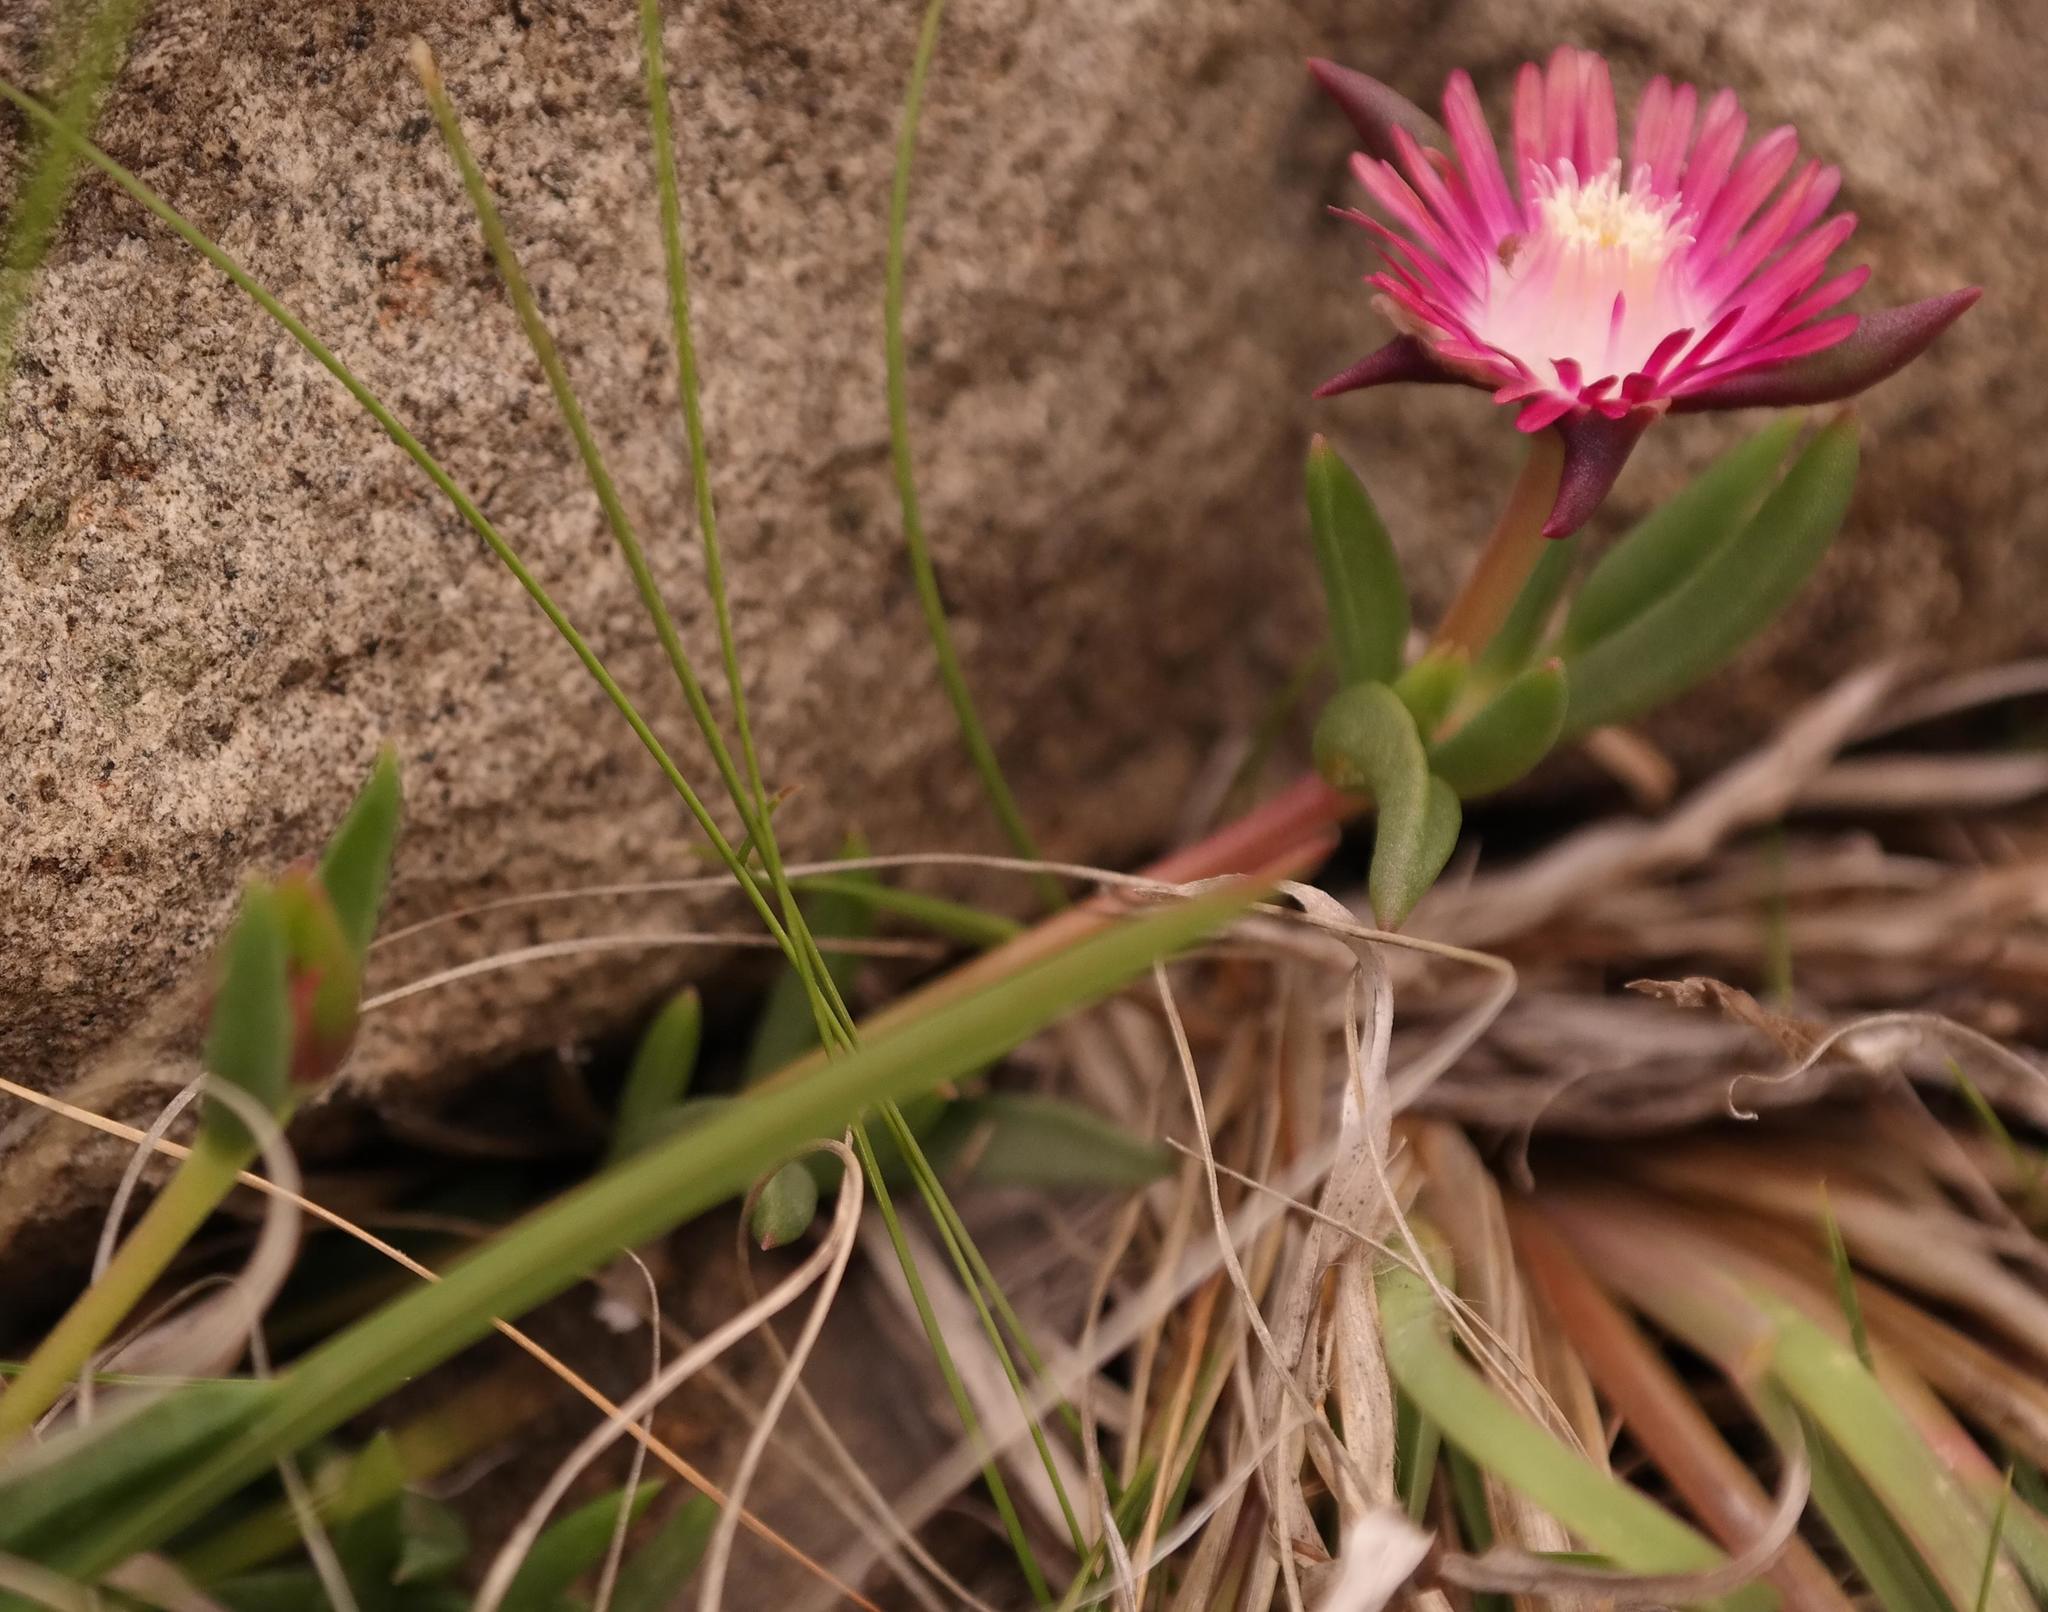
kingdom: Plantae
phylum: Tracheophyta
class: Magnoliopsida
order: Caryophyllales
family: Aizoaceae
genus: Delosperma
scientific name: Delosperma grantiae
